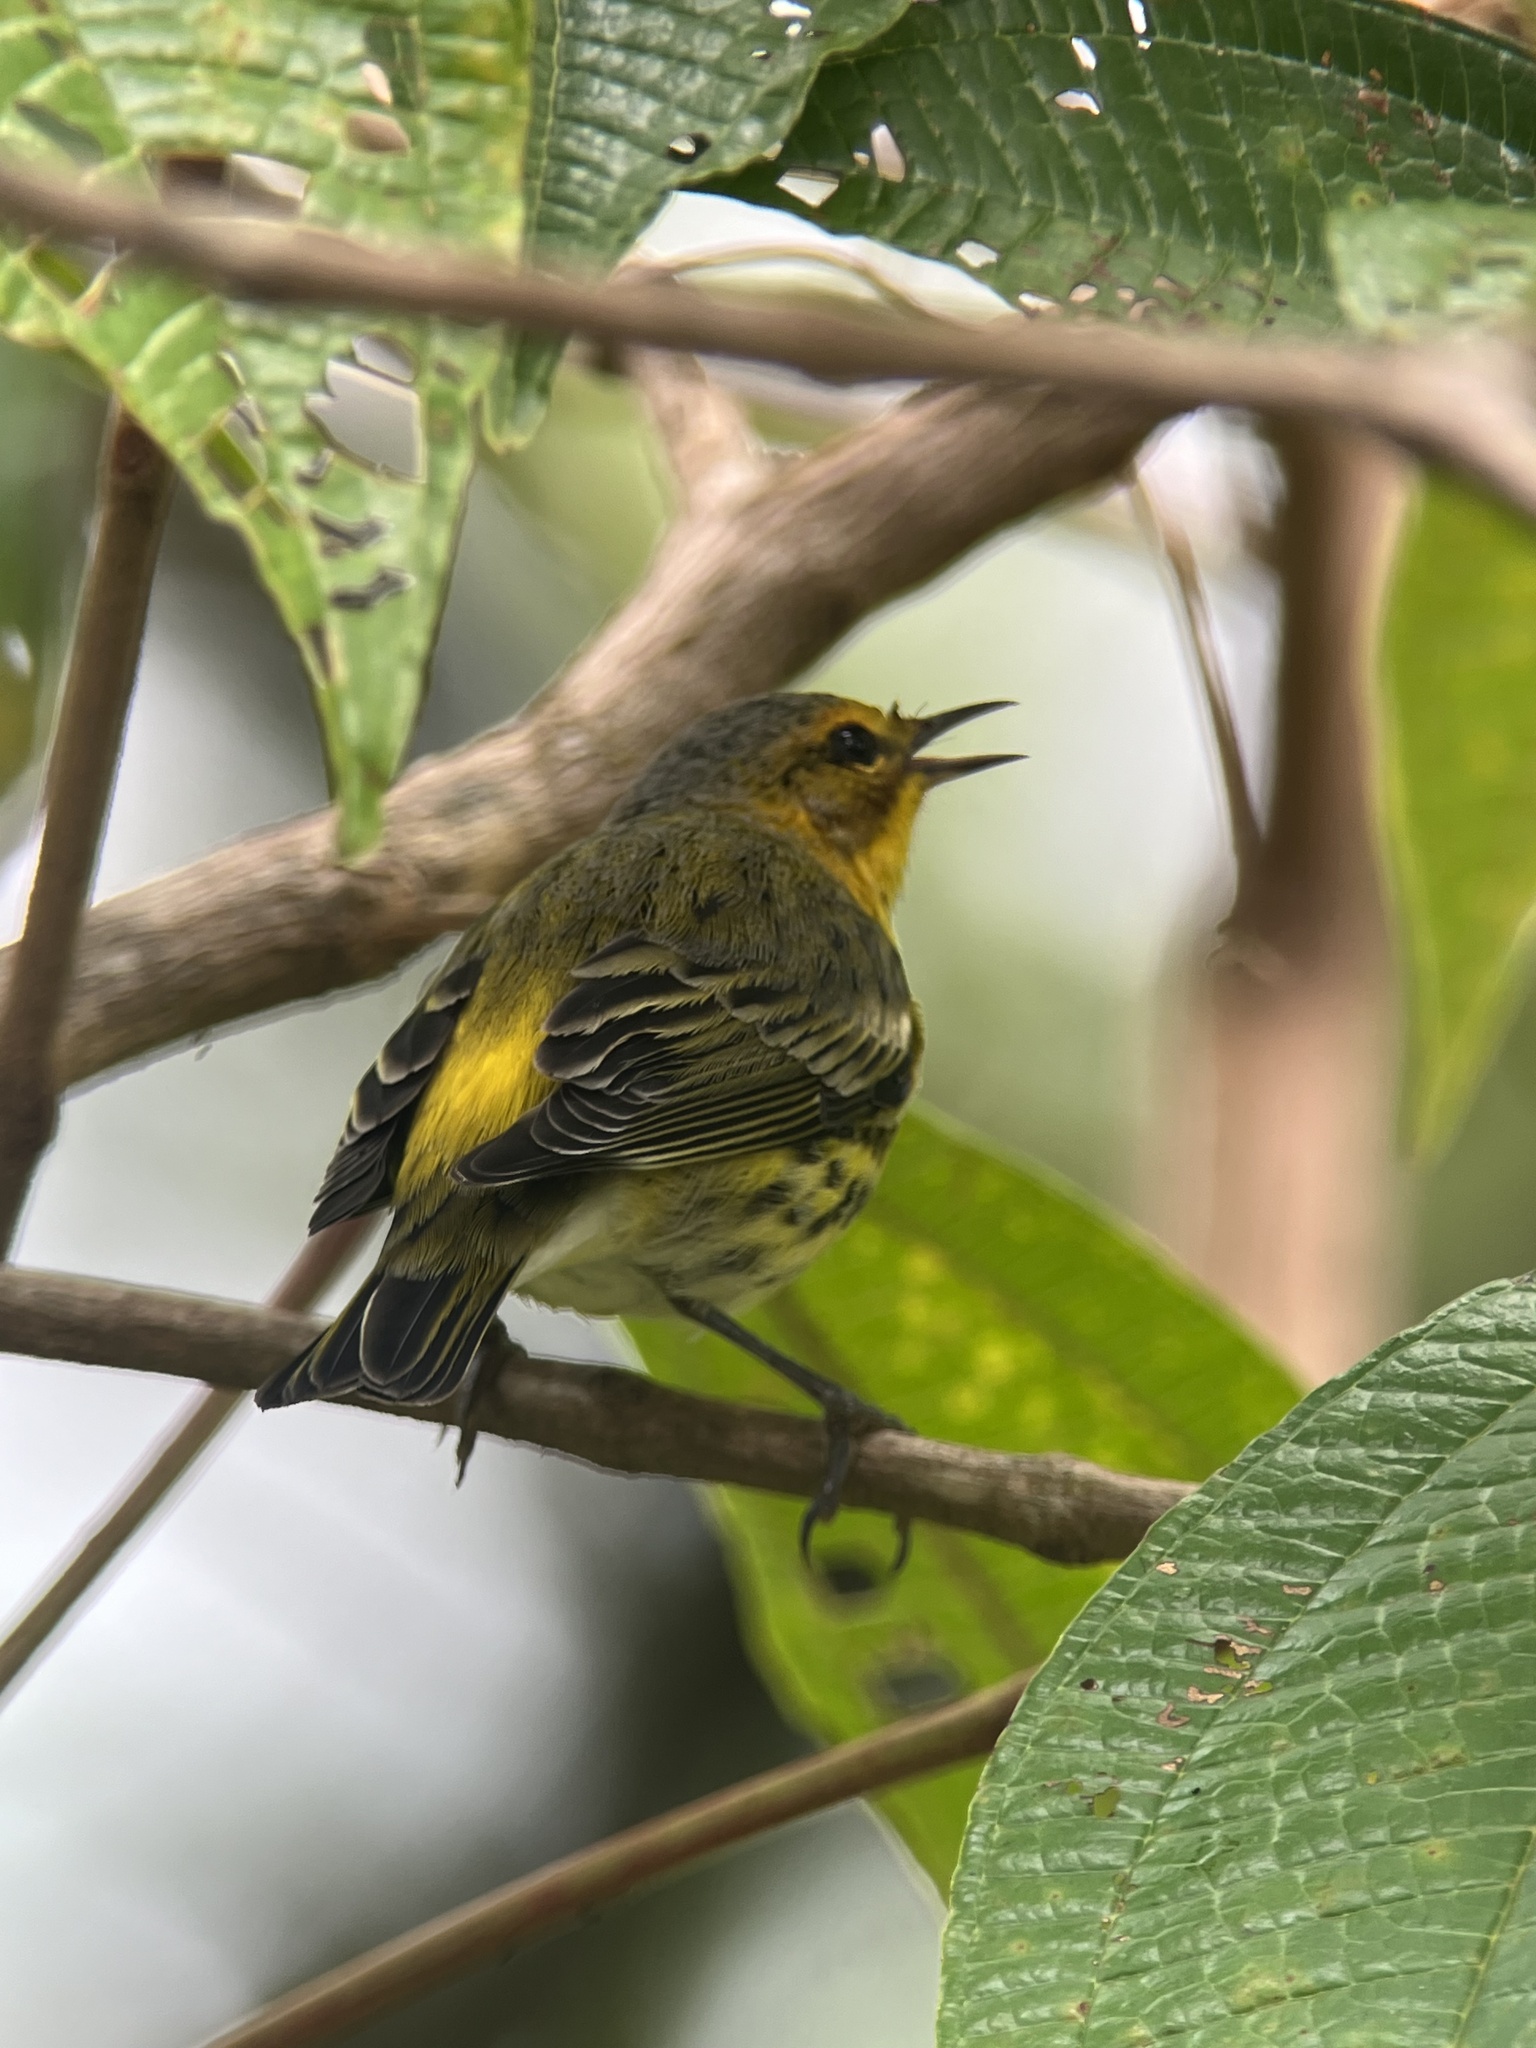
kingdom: Animalia
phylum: Chordata
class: Aves
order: Passeriformes
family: Parulidae
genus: Setophaga
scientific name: Setophaga tigrina
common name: Cape may warbler
